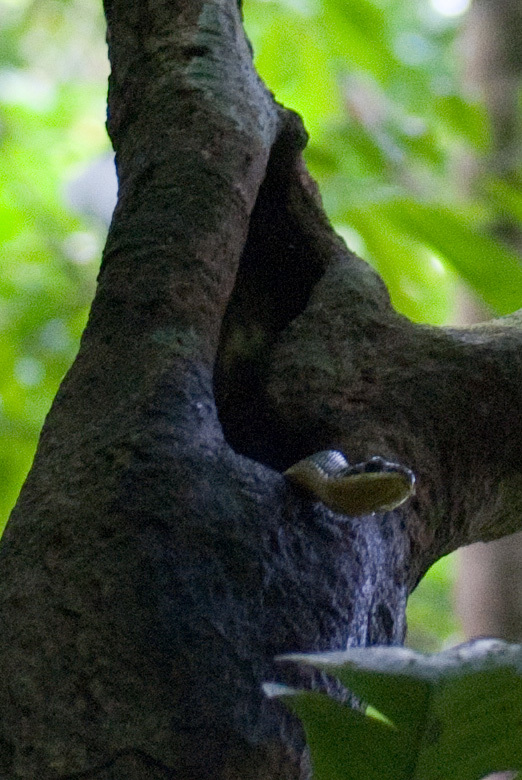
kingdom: Animalia
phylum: Chordata
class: Squamata
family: Colubridae
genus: Phrynonax
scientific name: Phrynonax poecilonotus
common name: Puffing snake
